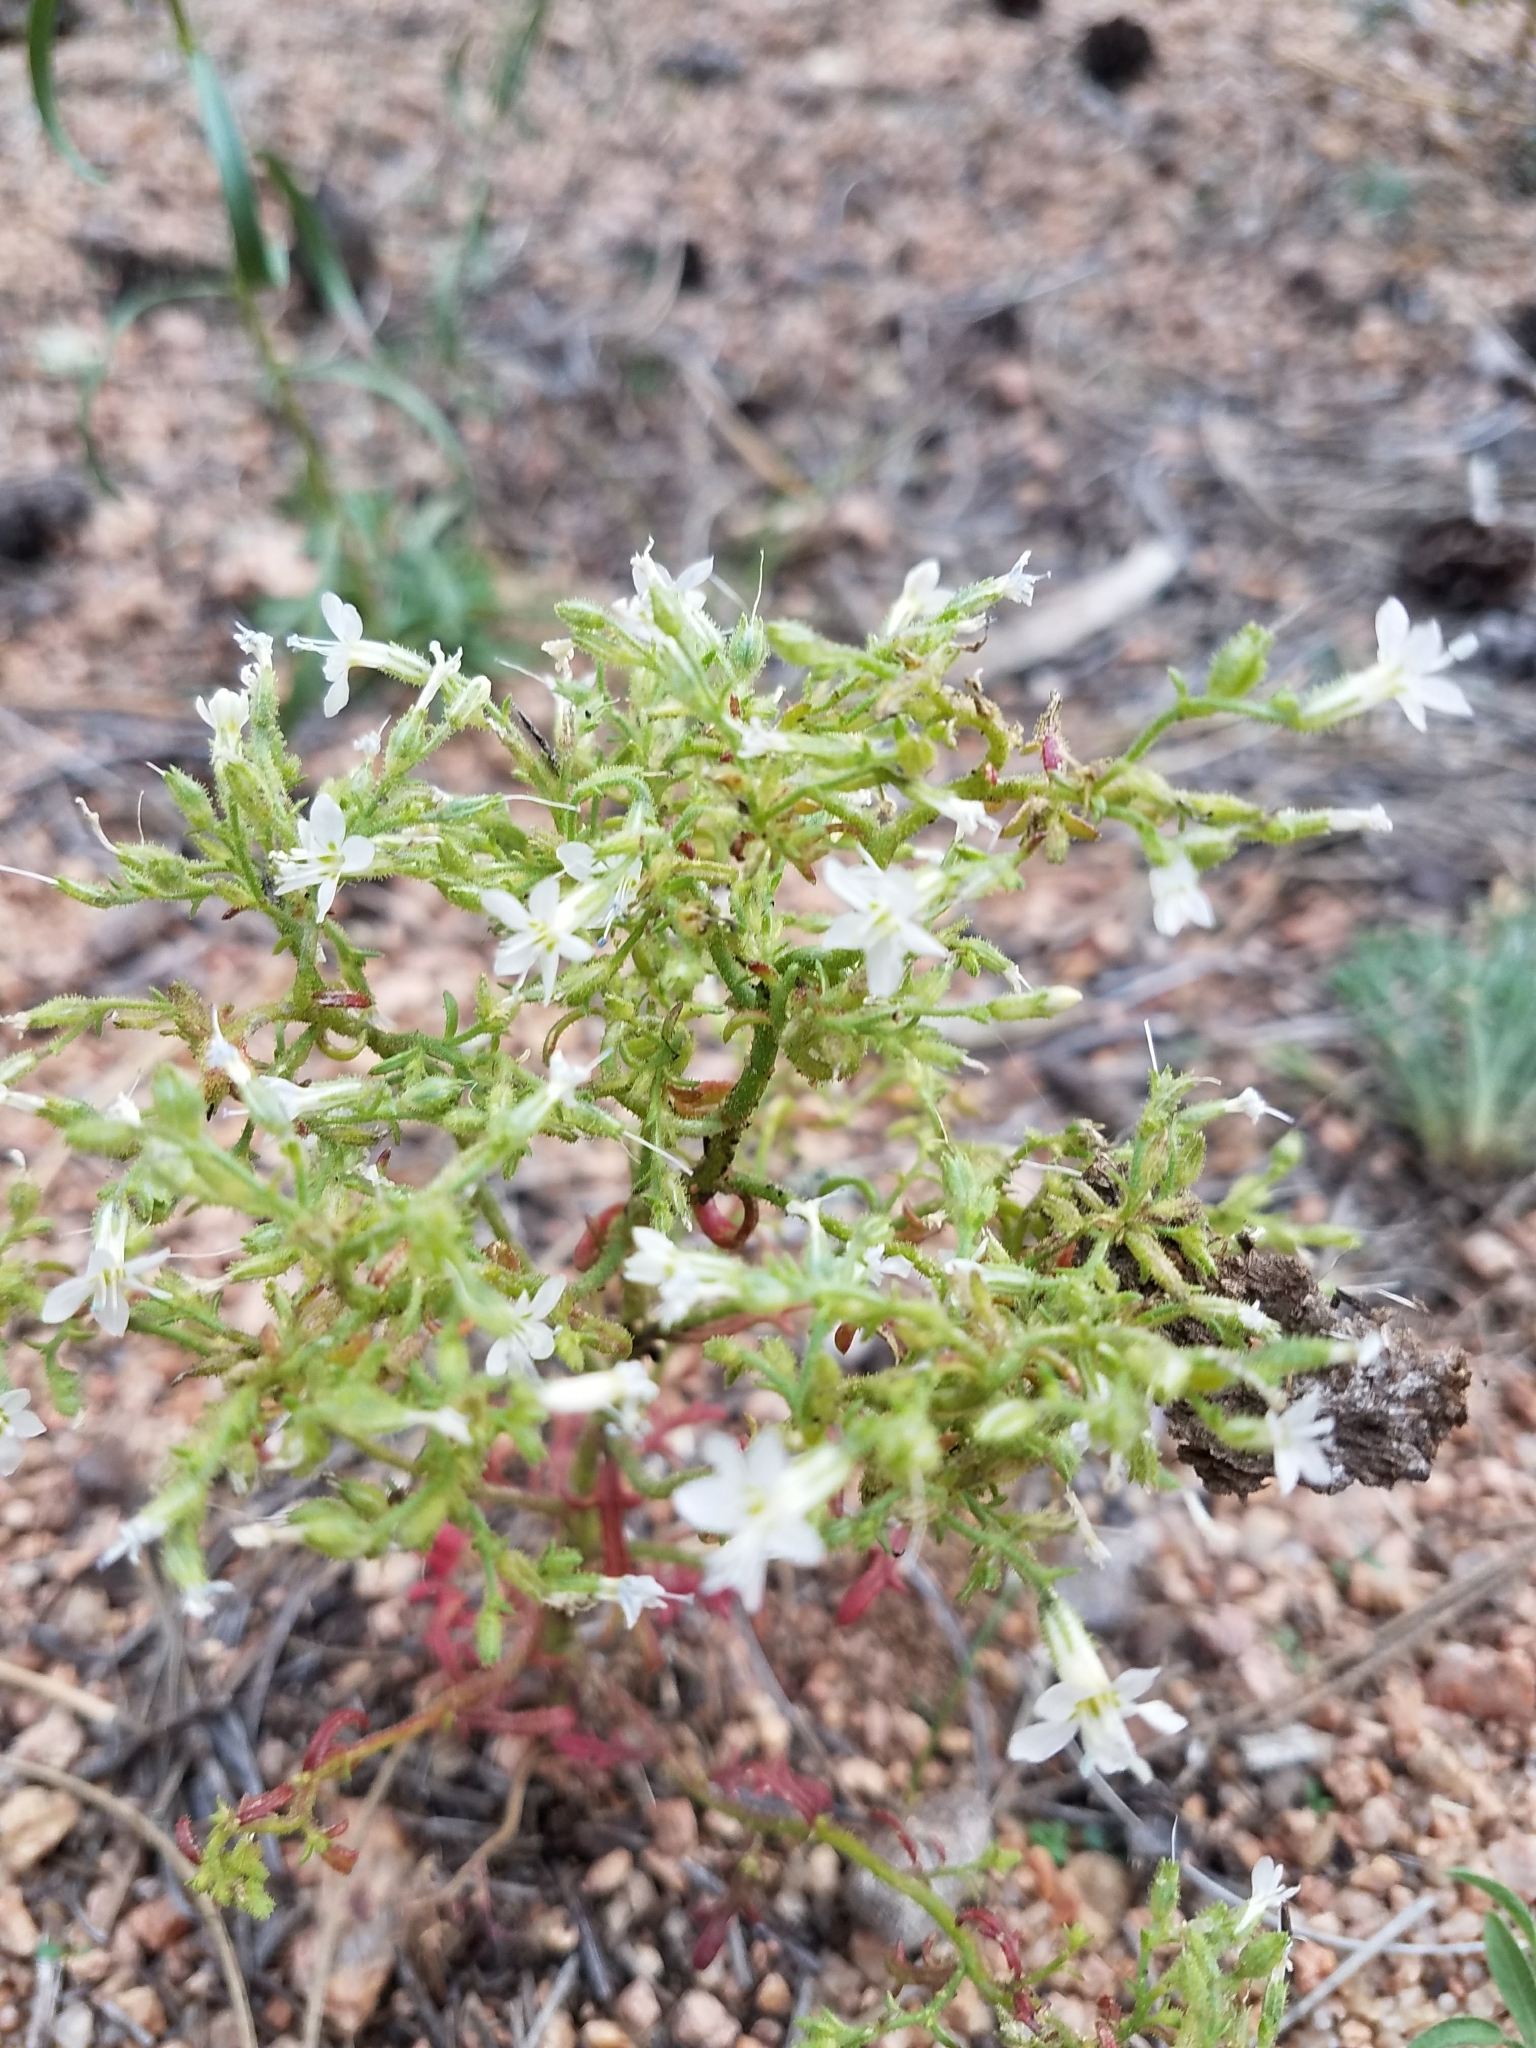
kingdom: Plantae
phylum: Tracheophyta
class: Magnoliopsida
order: Ericales
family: Polemoniaceae
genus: Aliciella
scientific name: Aliciella pinnatifida
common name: Sticky gilia
